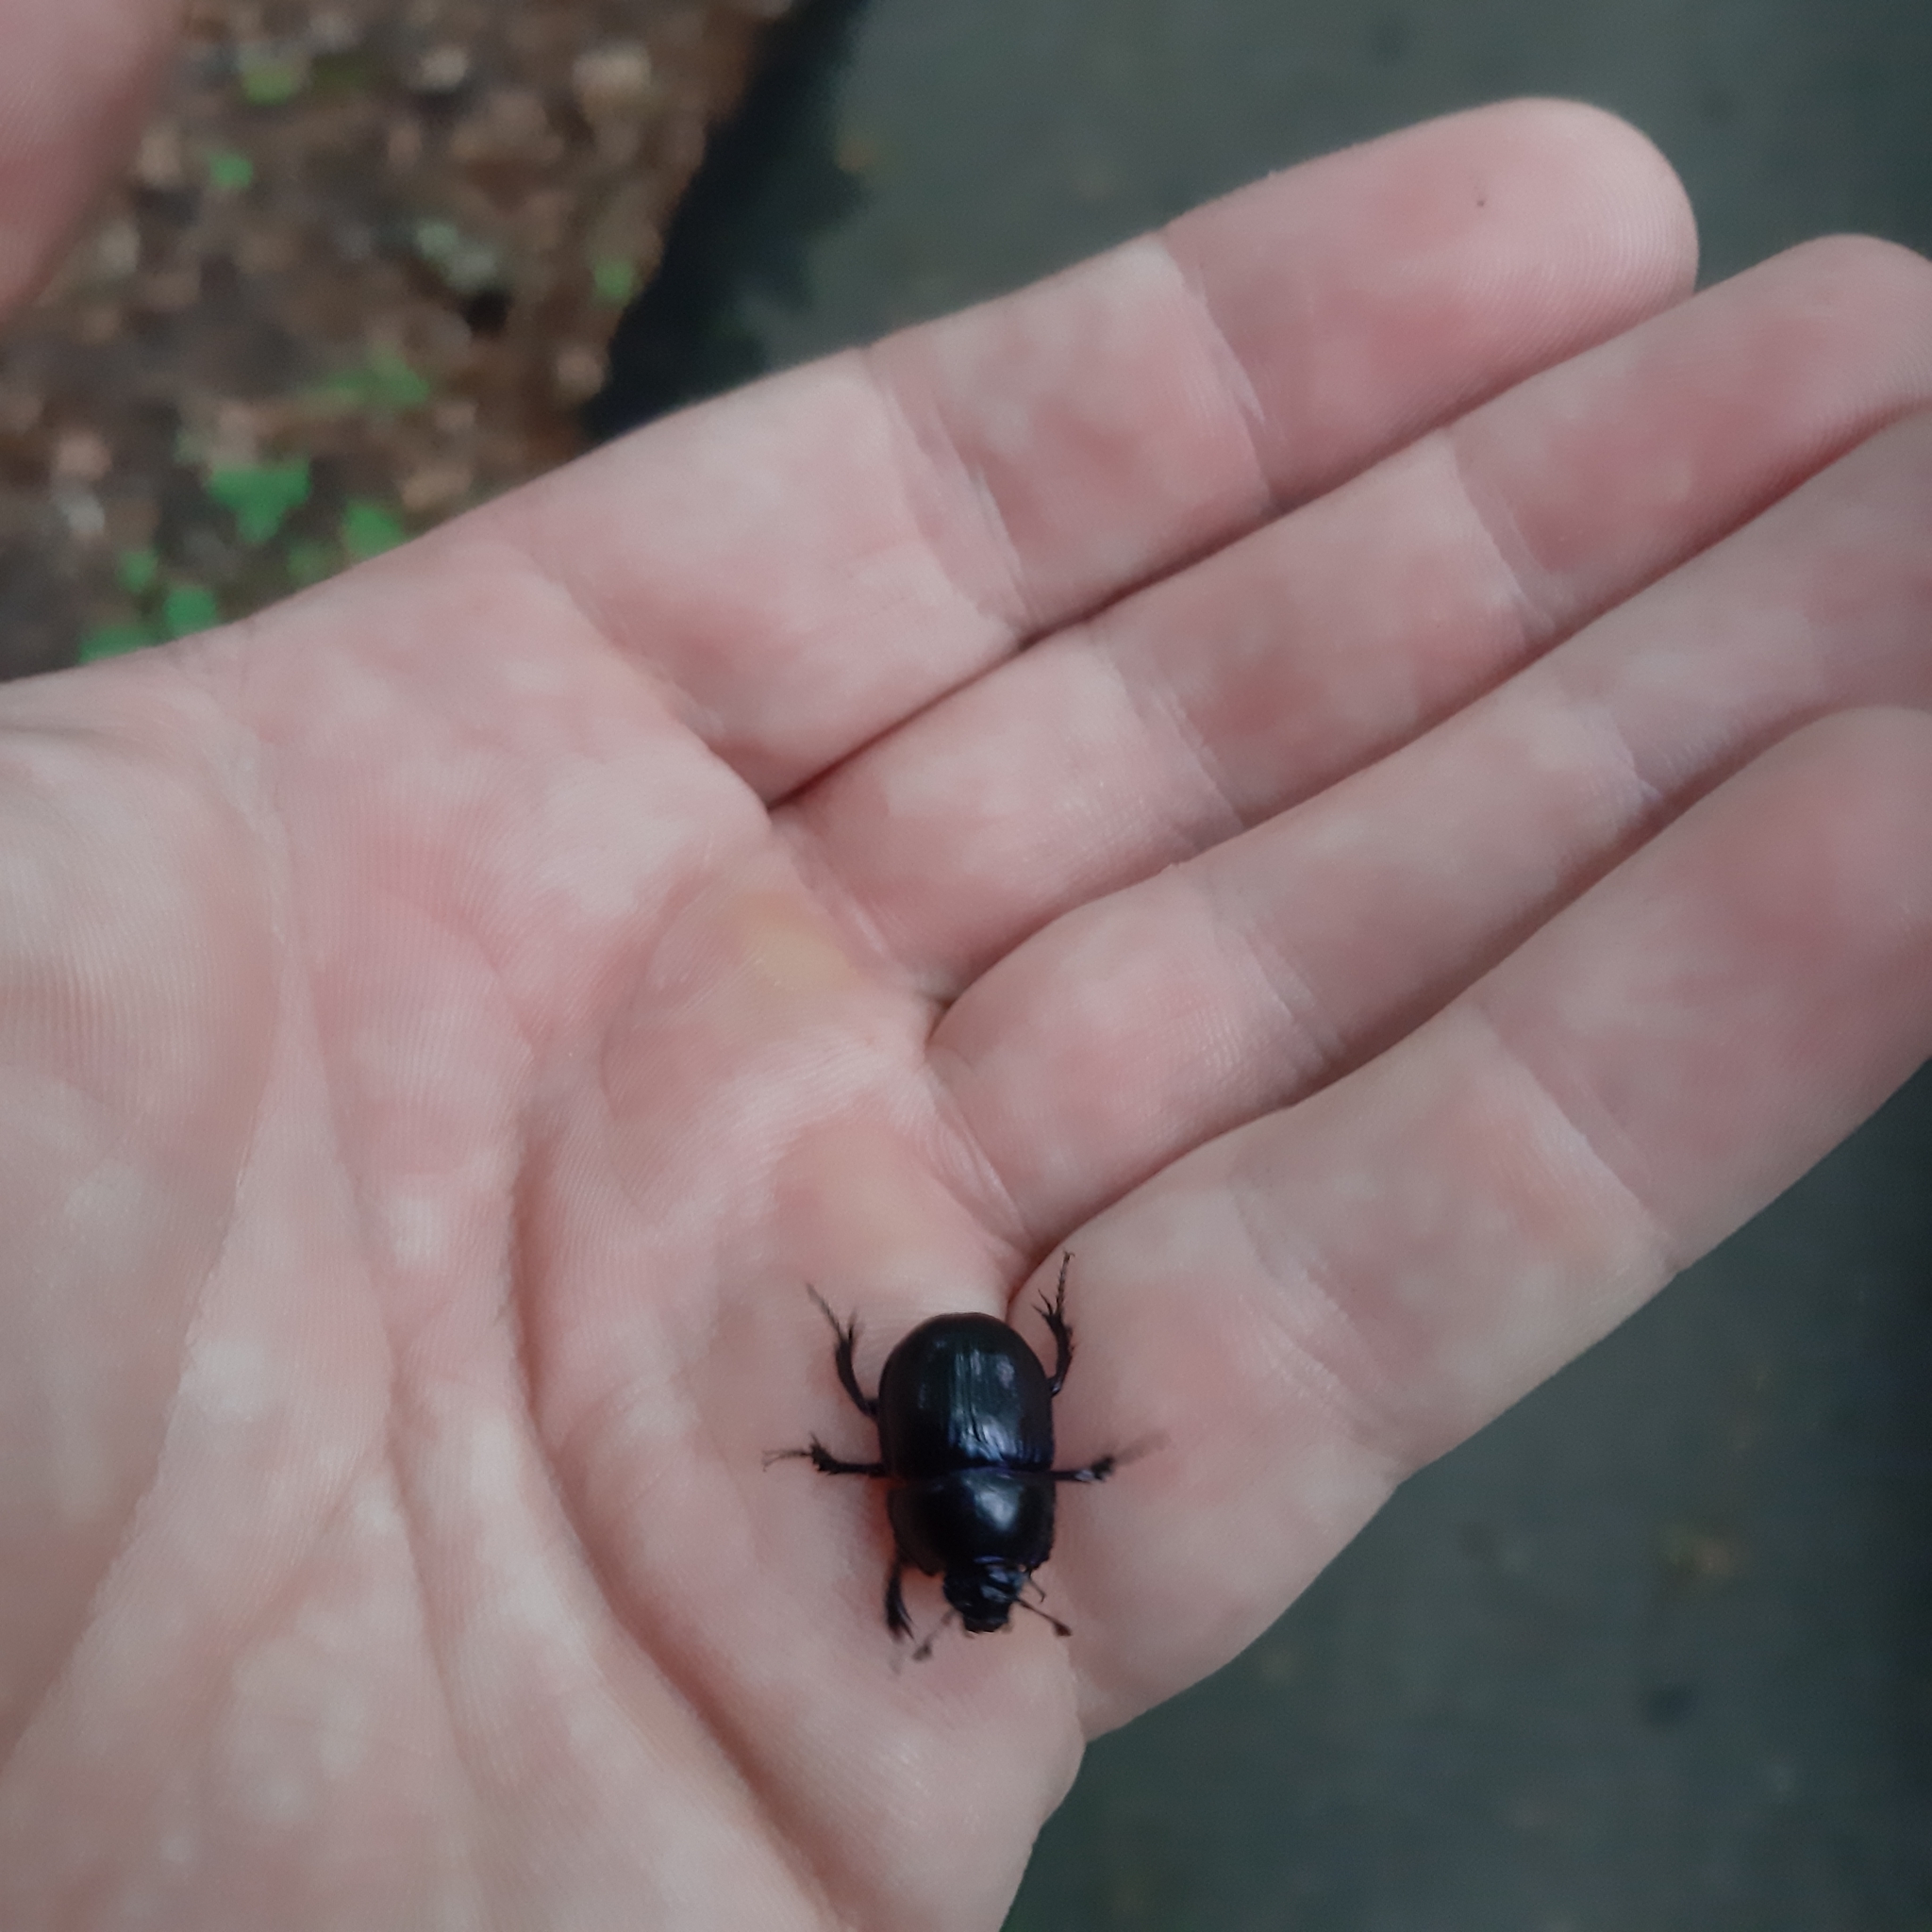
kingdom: Animalia
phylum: Arthropoda
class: Insecta
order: Coleoptera
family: Geotrupidae
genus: Anoplotrupes
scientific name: Anoplotrupes stercorosus
